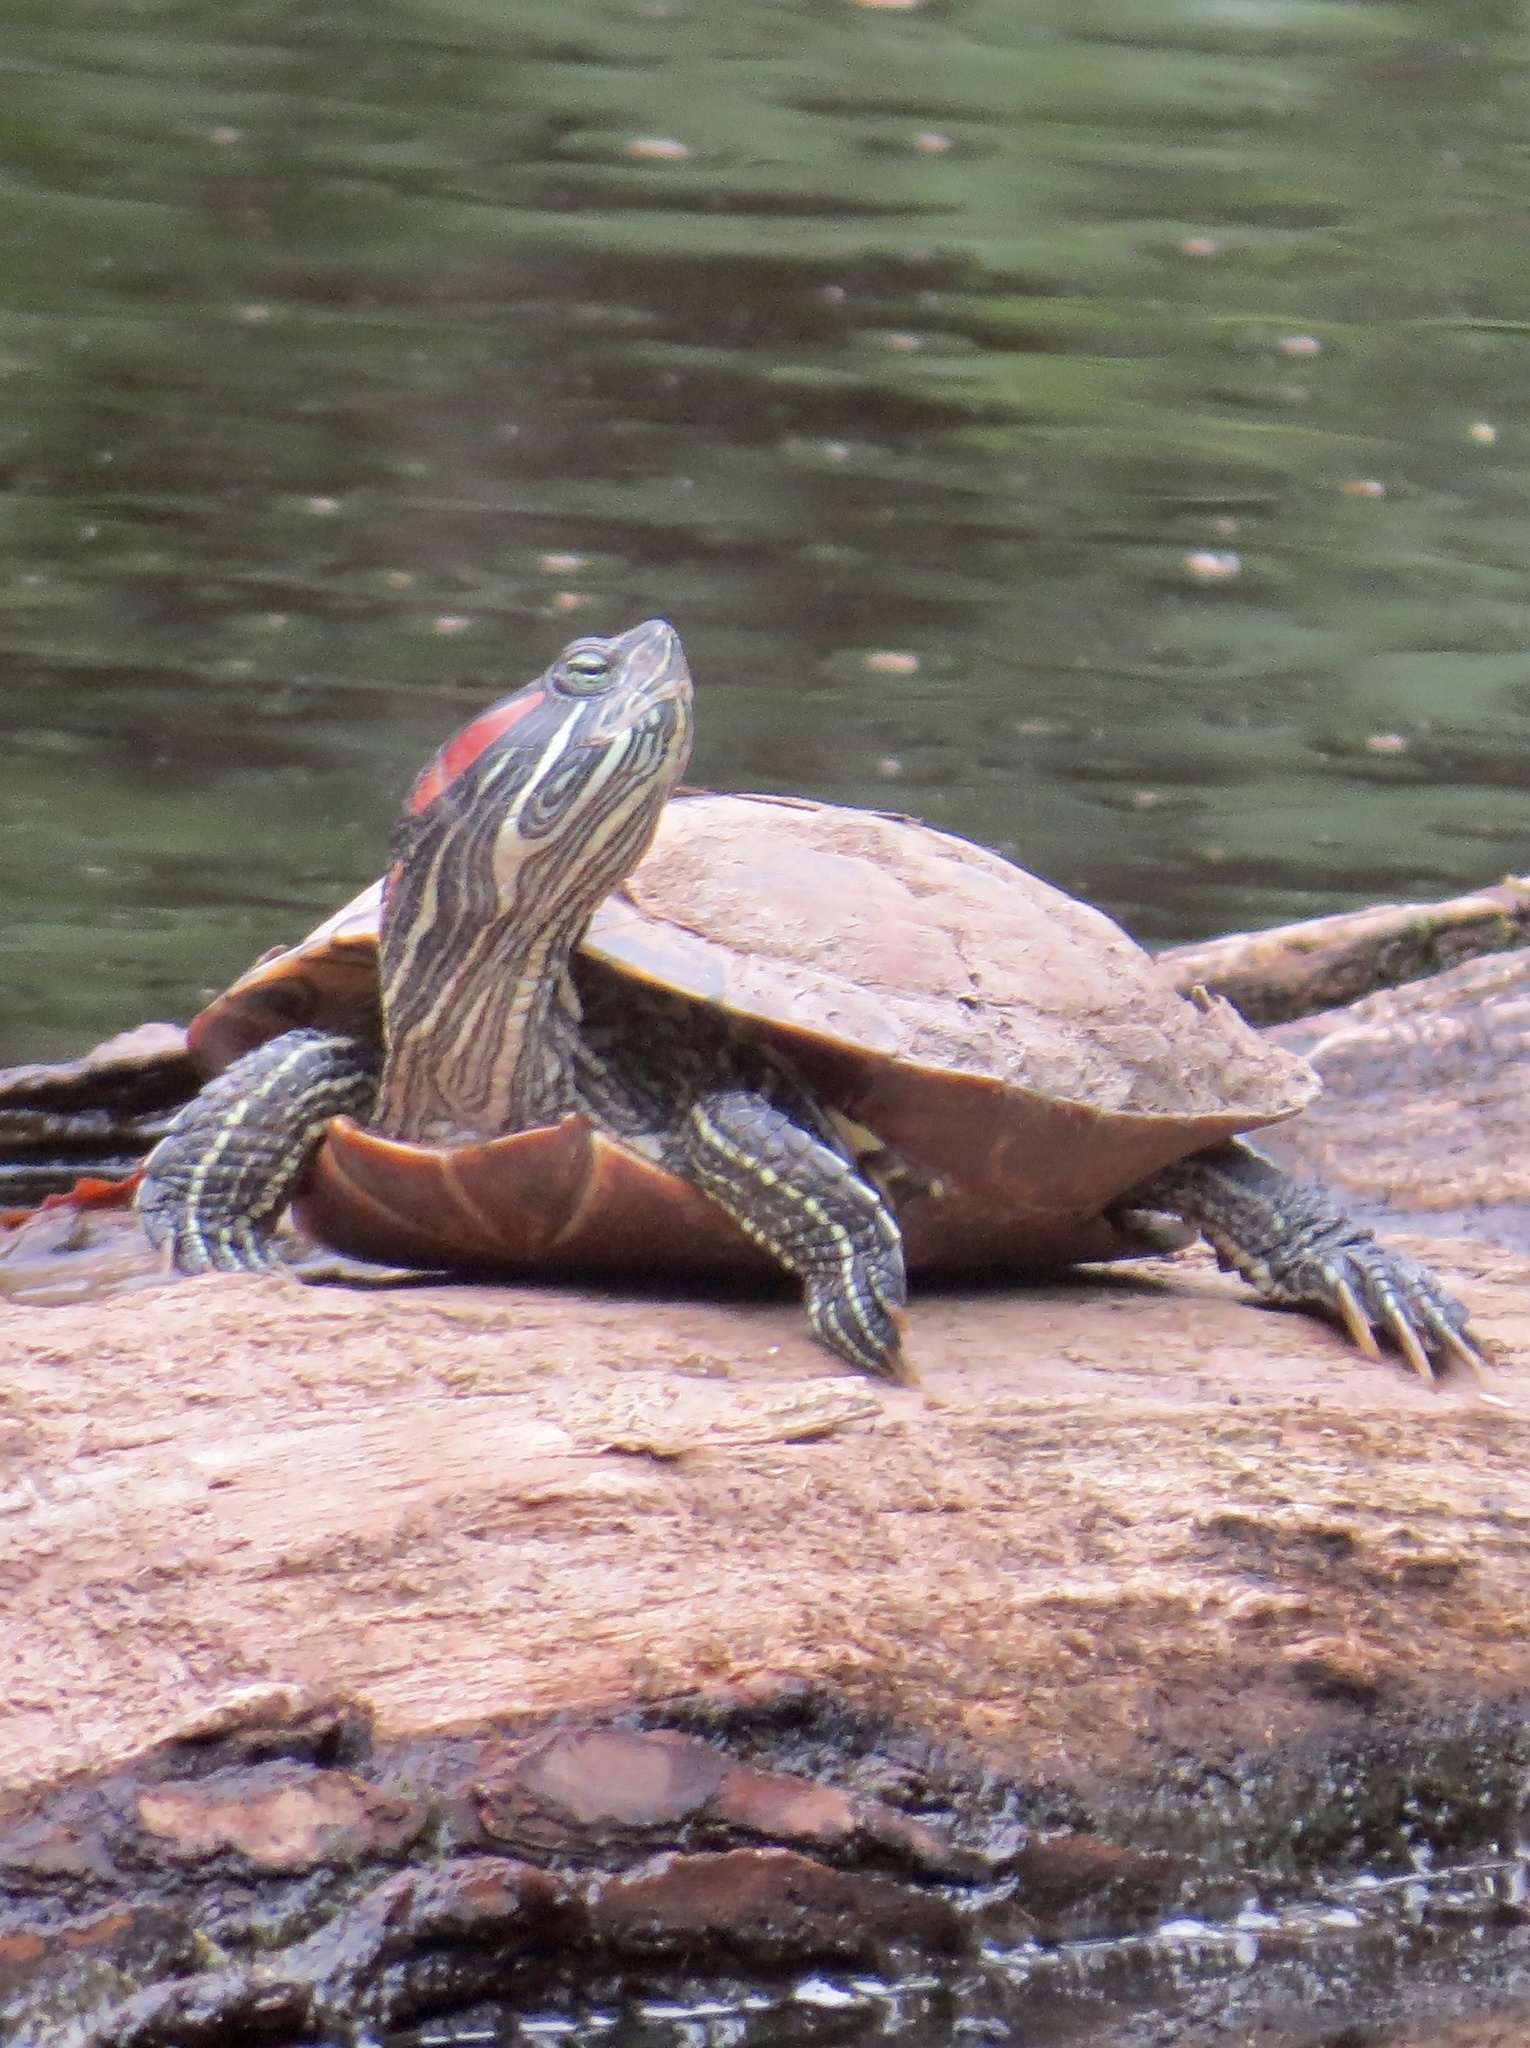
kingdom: Animalia
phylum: Chordata
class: Testudines
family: Emydidae
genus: Trachemys
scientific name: Trachemys scripta
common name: Slider
